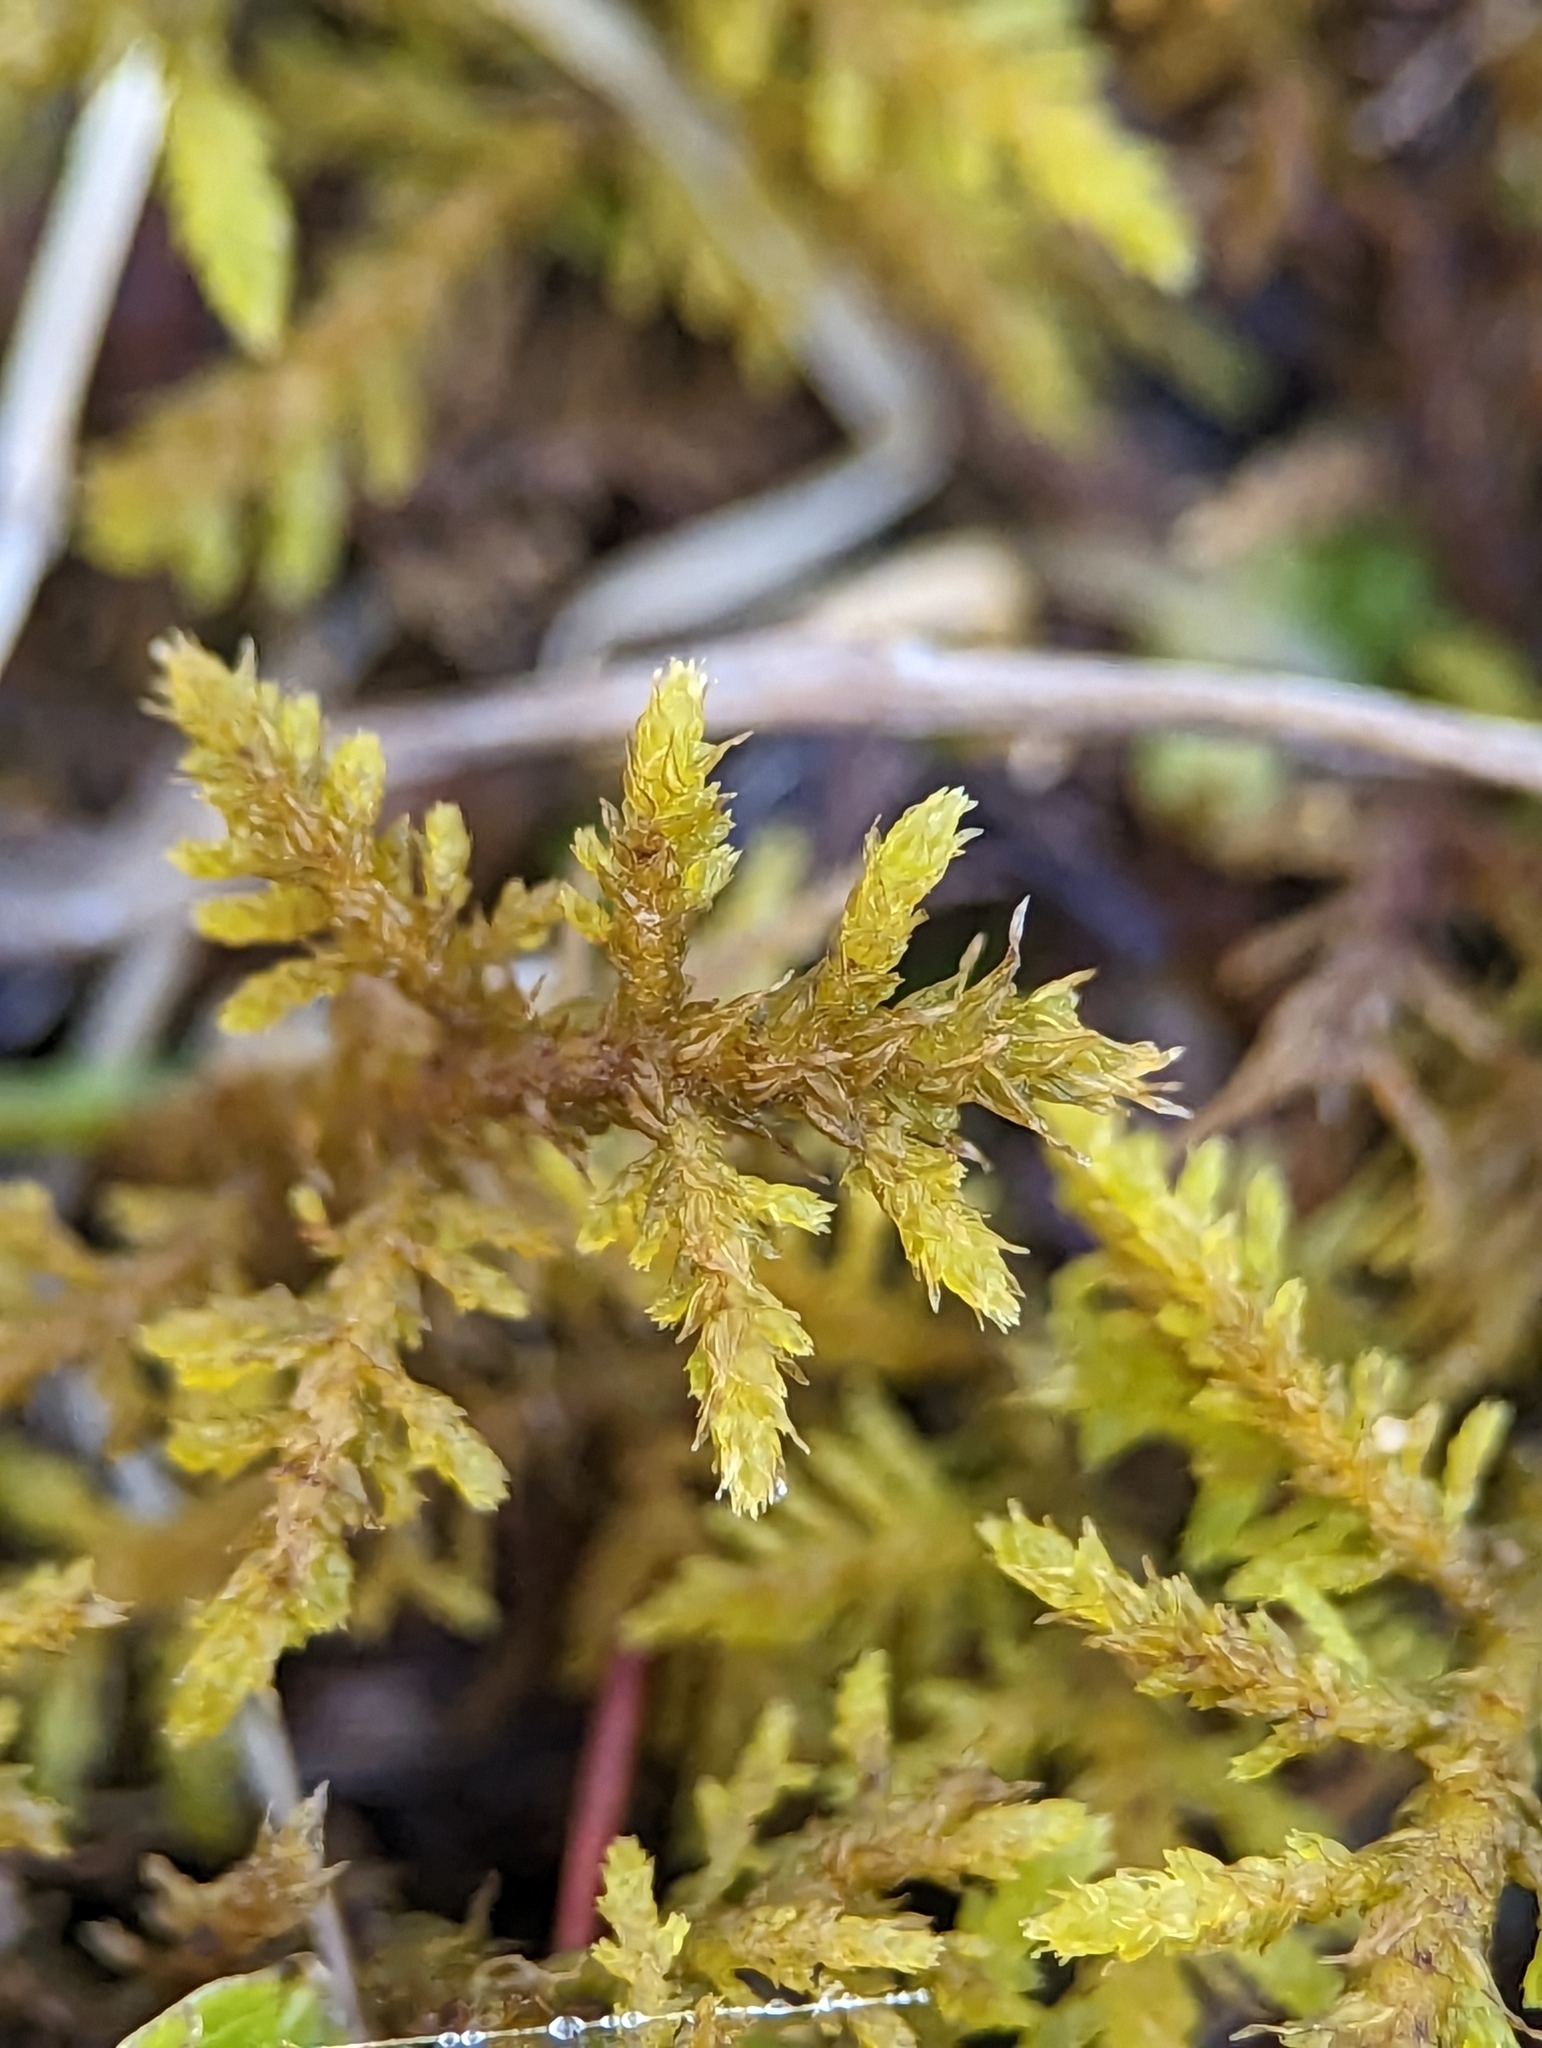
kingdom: Plantae
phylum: Bryophyta
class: Bryopsida
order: Hypnales
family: Thuidiaceae
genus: Thuidium
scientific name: Thuidium delicatulum
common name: Delicate fern moss
